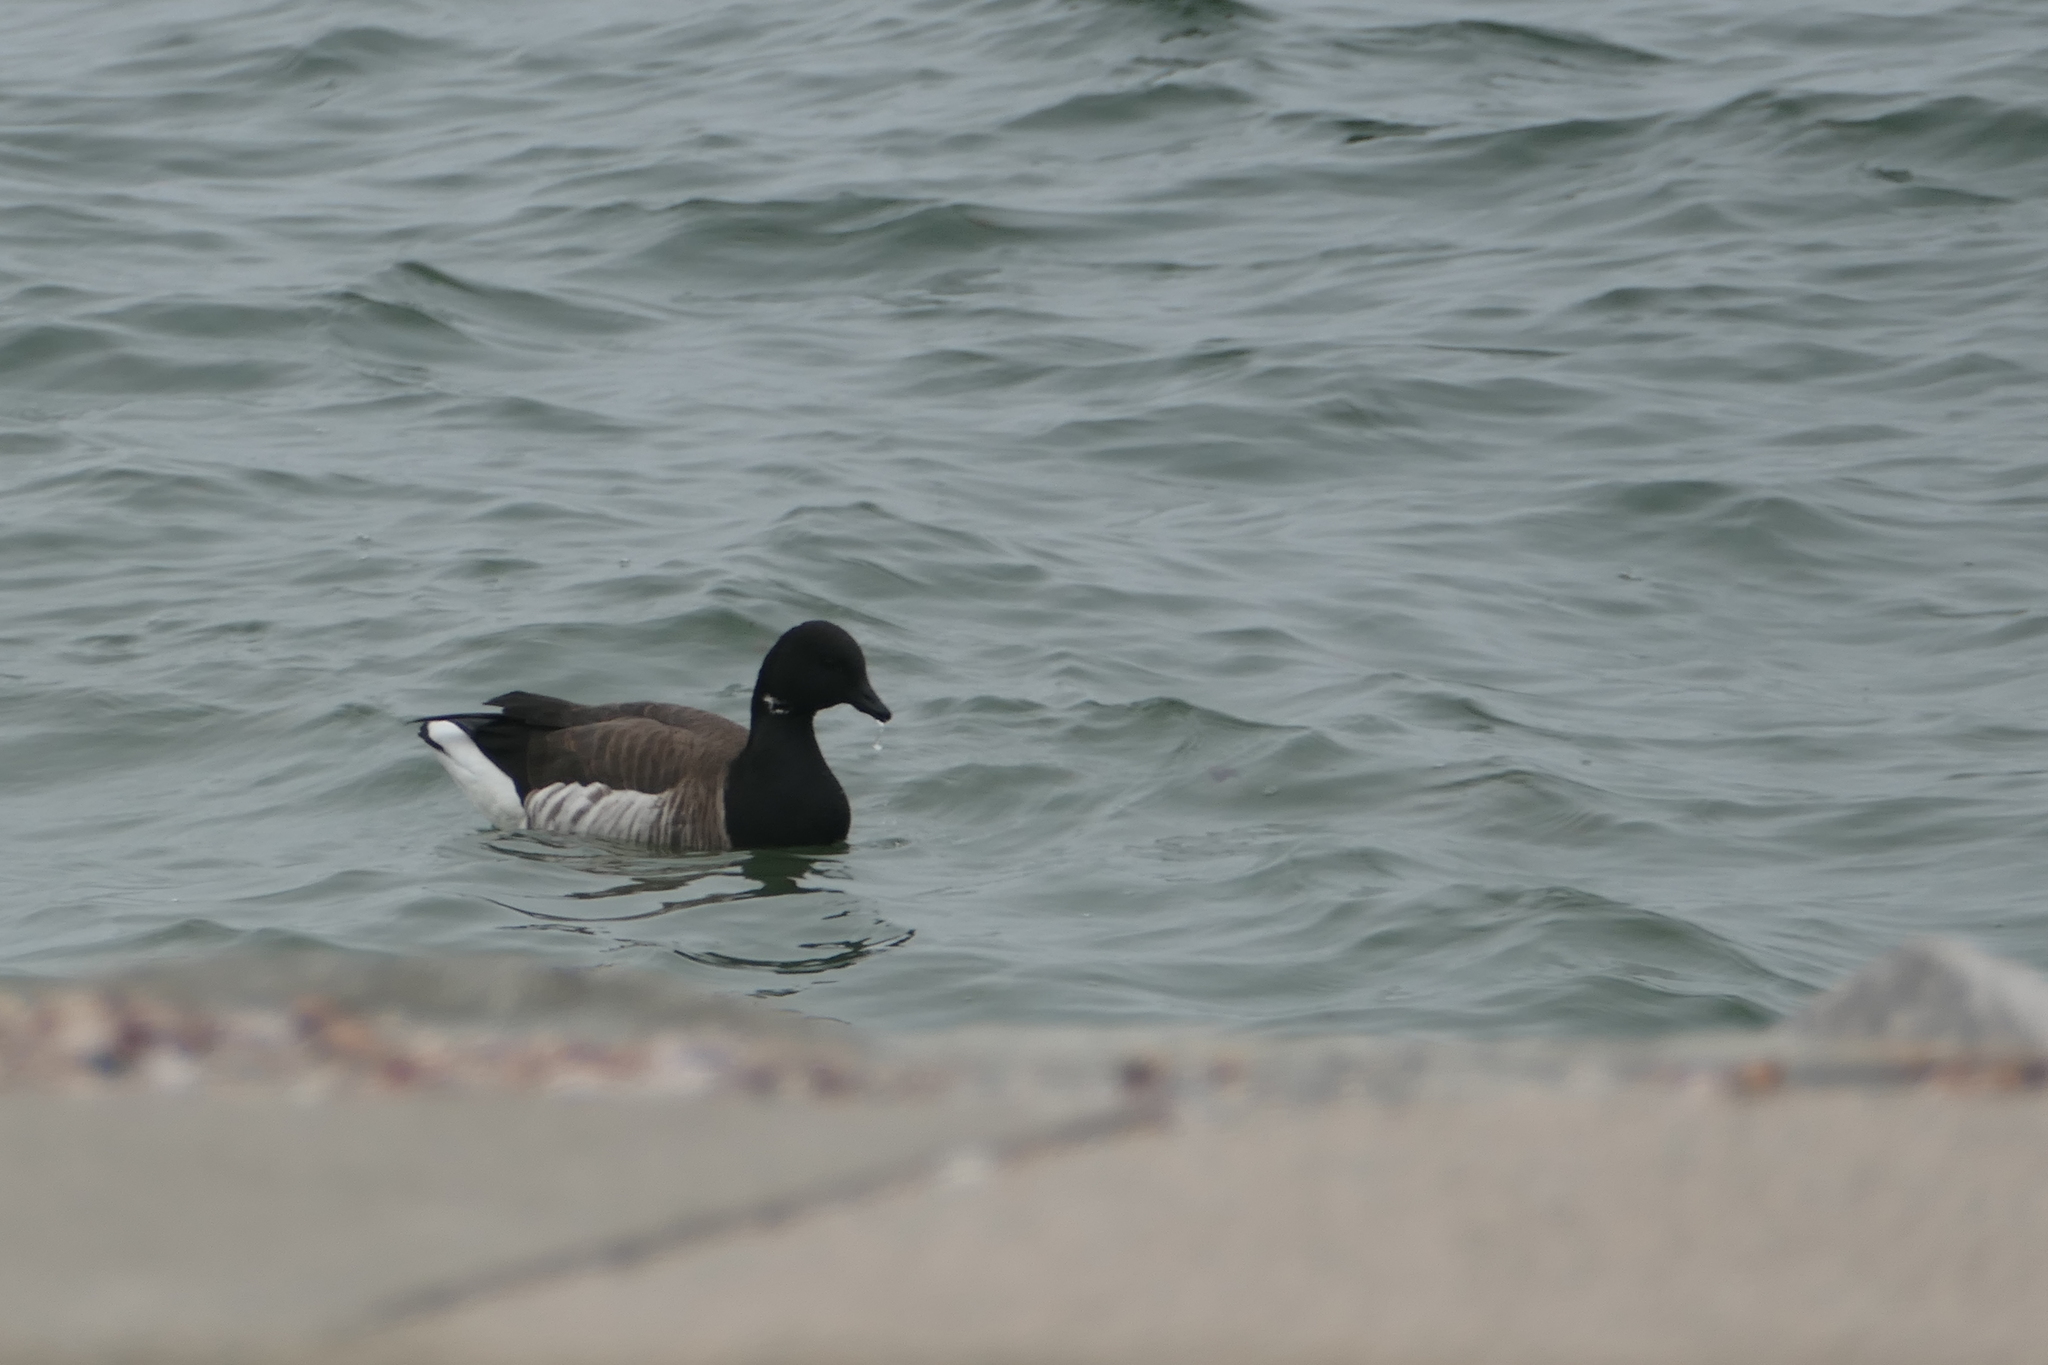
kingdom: Animalia
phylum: Chordata
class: Aves
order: Anseriformes
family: Anatidae
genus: Branta
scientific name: Branta bernicla
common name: Brant goose
